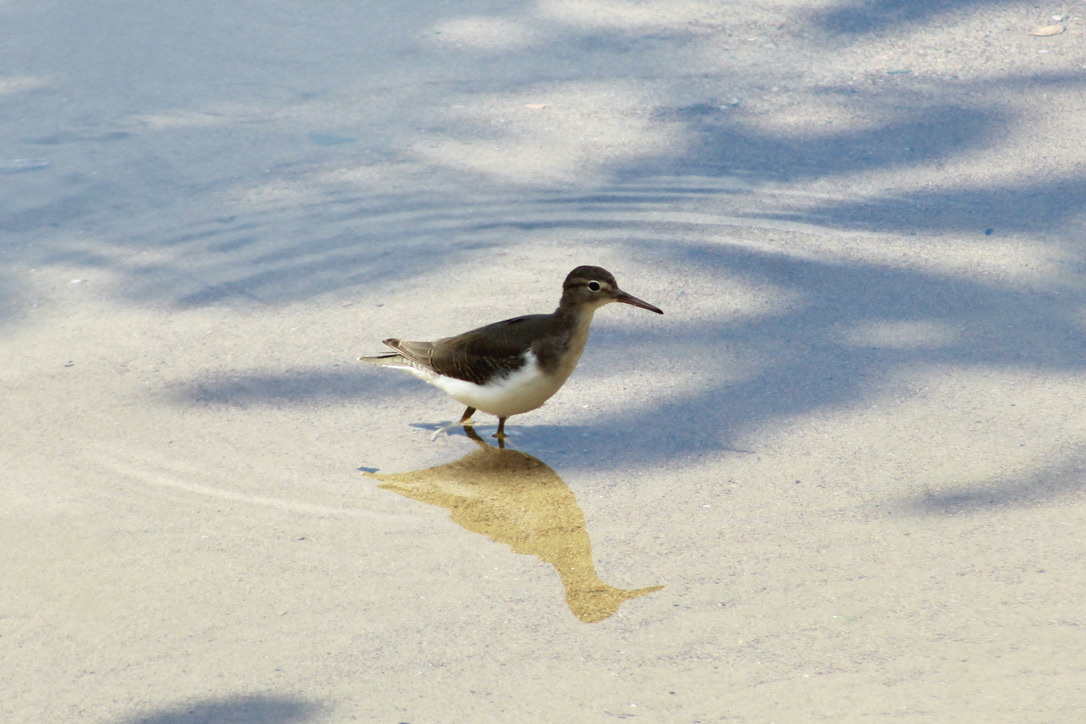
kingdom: Animalia
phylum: Chordata
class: Aves
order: Charadriiformes
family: Scolopacidae
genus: Actitis
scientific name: Actitis macularius
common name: Spotted sandpiper
